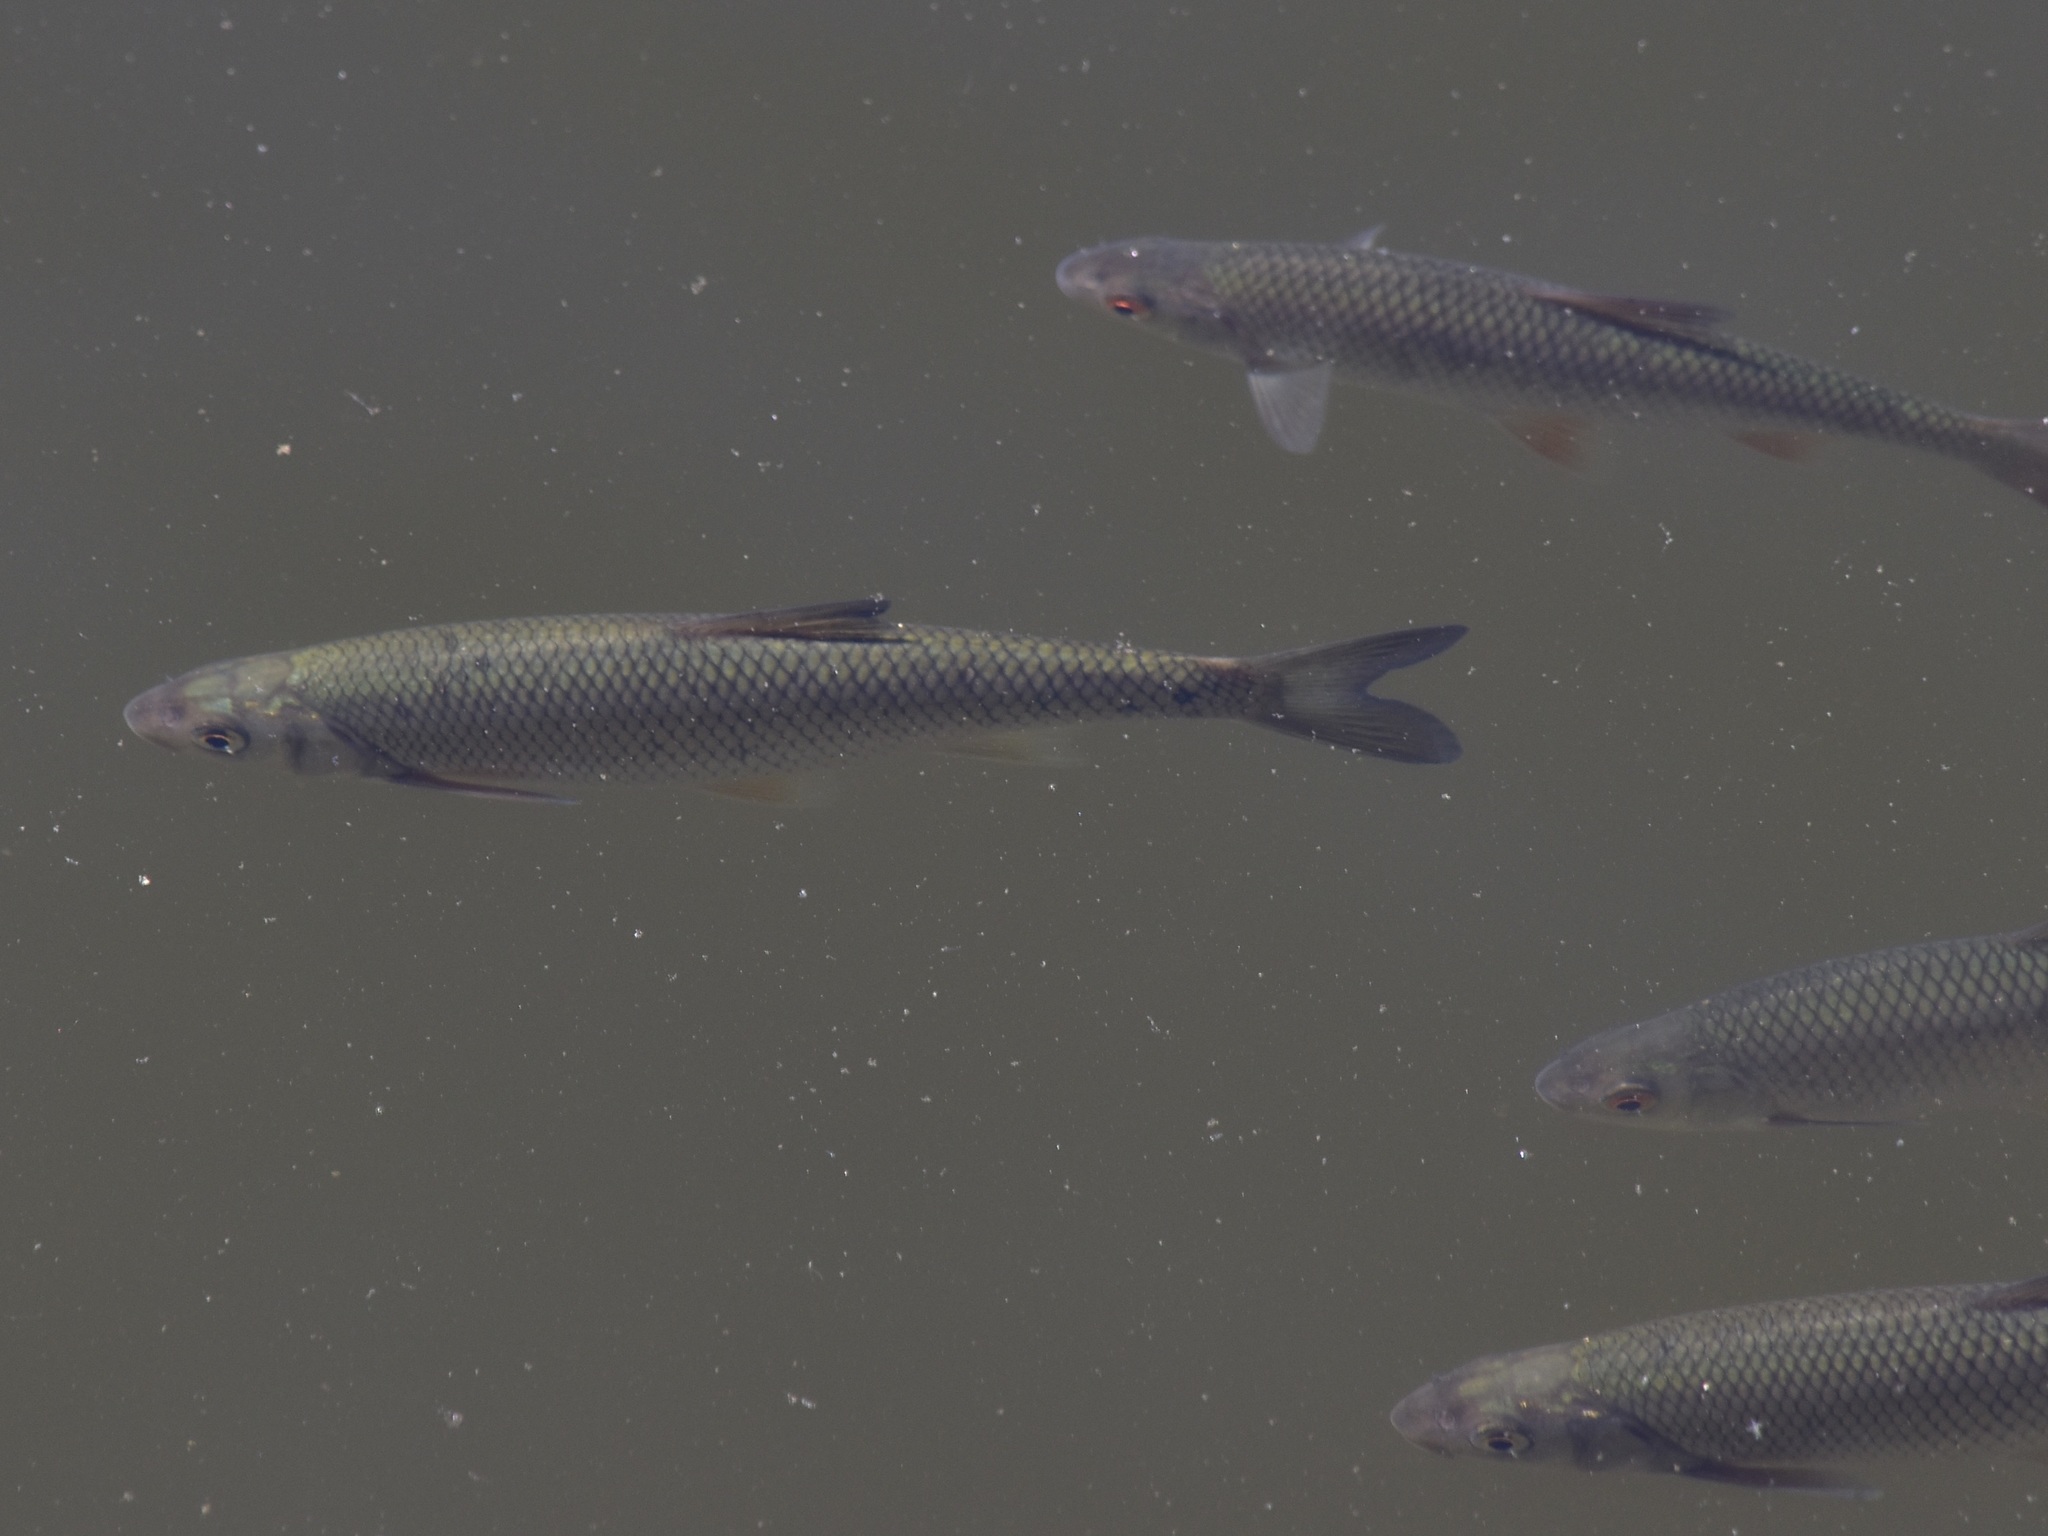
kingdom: Animalia
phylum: Chordata
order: Cypriniformes
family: Cyprinidae
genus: Rutilus
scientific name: Rutilus rutilus
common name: Roach
